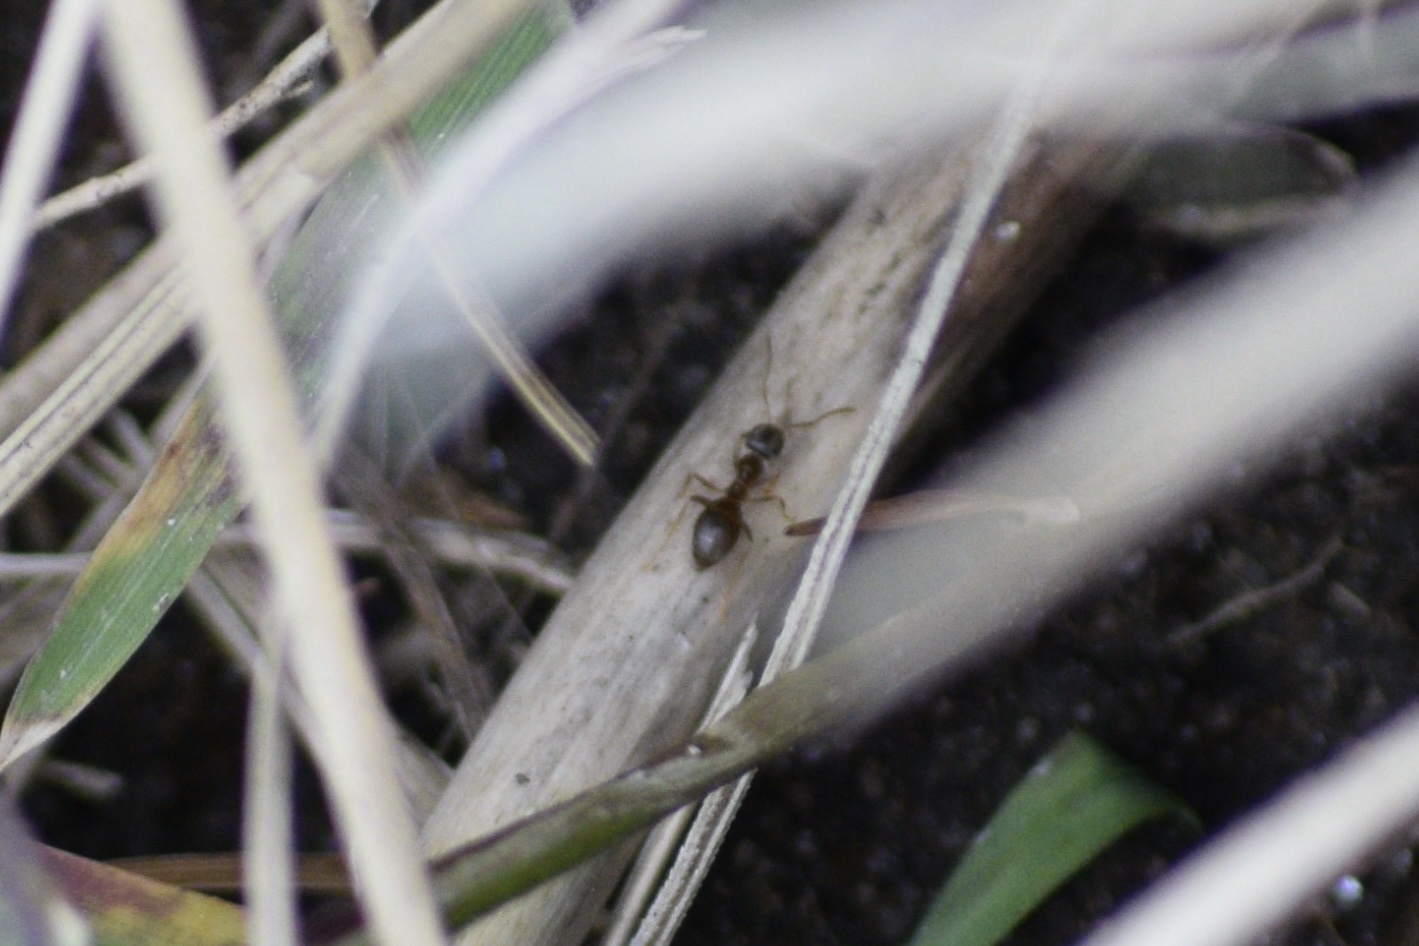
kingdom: Animalia
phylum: Arthropoda
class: Insecta
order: Hymenoptera
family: Formicidae
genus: Lasius
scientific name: Lasius
